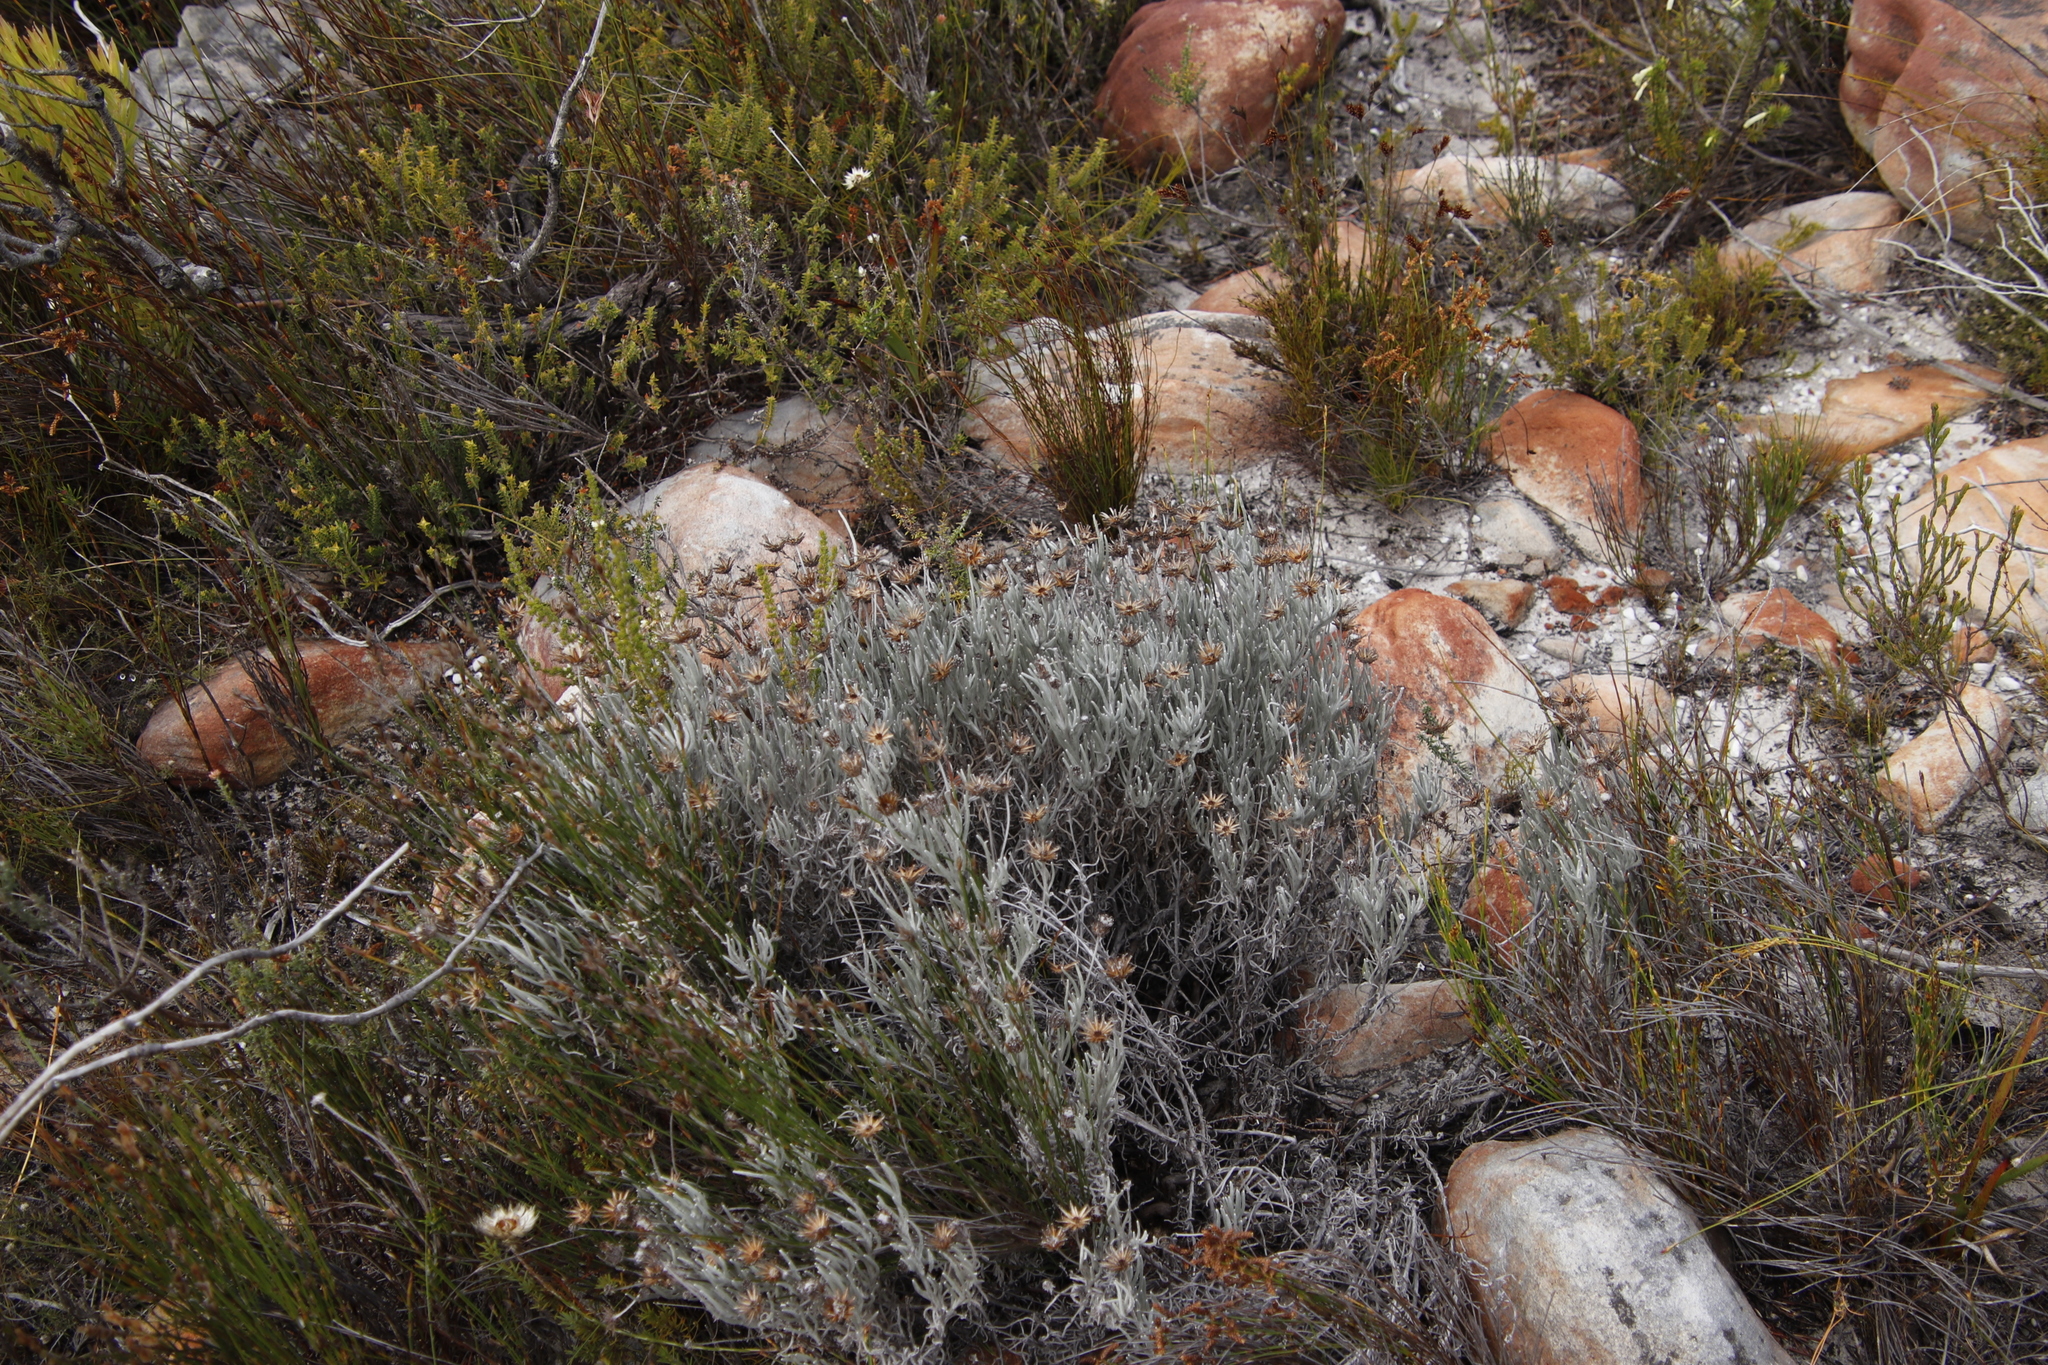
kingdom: Plantae
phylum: Tracheophyta
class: Magnoliopsida
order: Asterales
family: Asteraceae
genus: Syncarpha
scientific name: Syncarpha gnaphaloides
